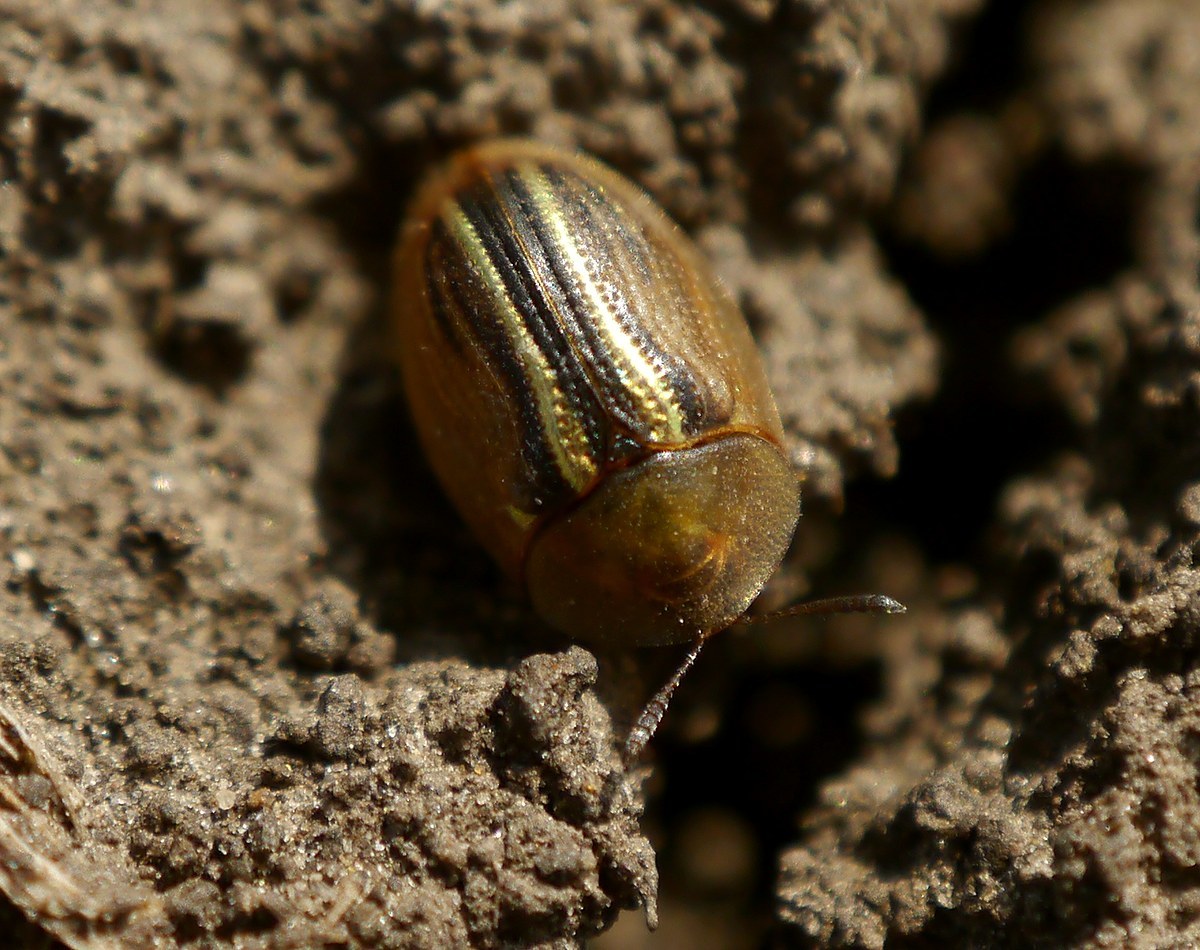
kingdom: Animalia
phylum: Arthropoda
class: Insecta
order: Coleoptera
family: Chrysomelidae
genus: Cassida
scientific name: Cassida nobilis
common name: Leaf beetle
